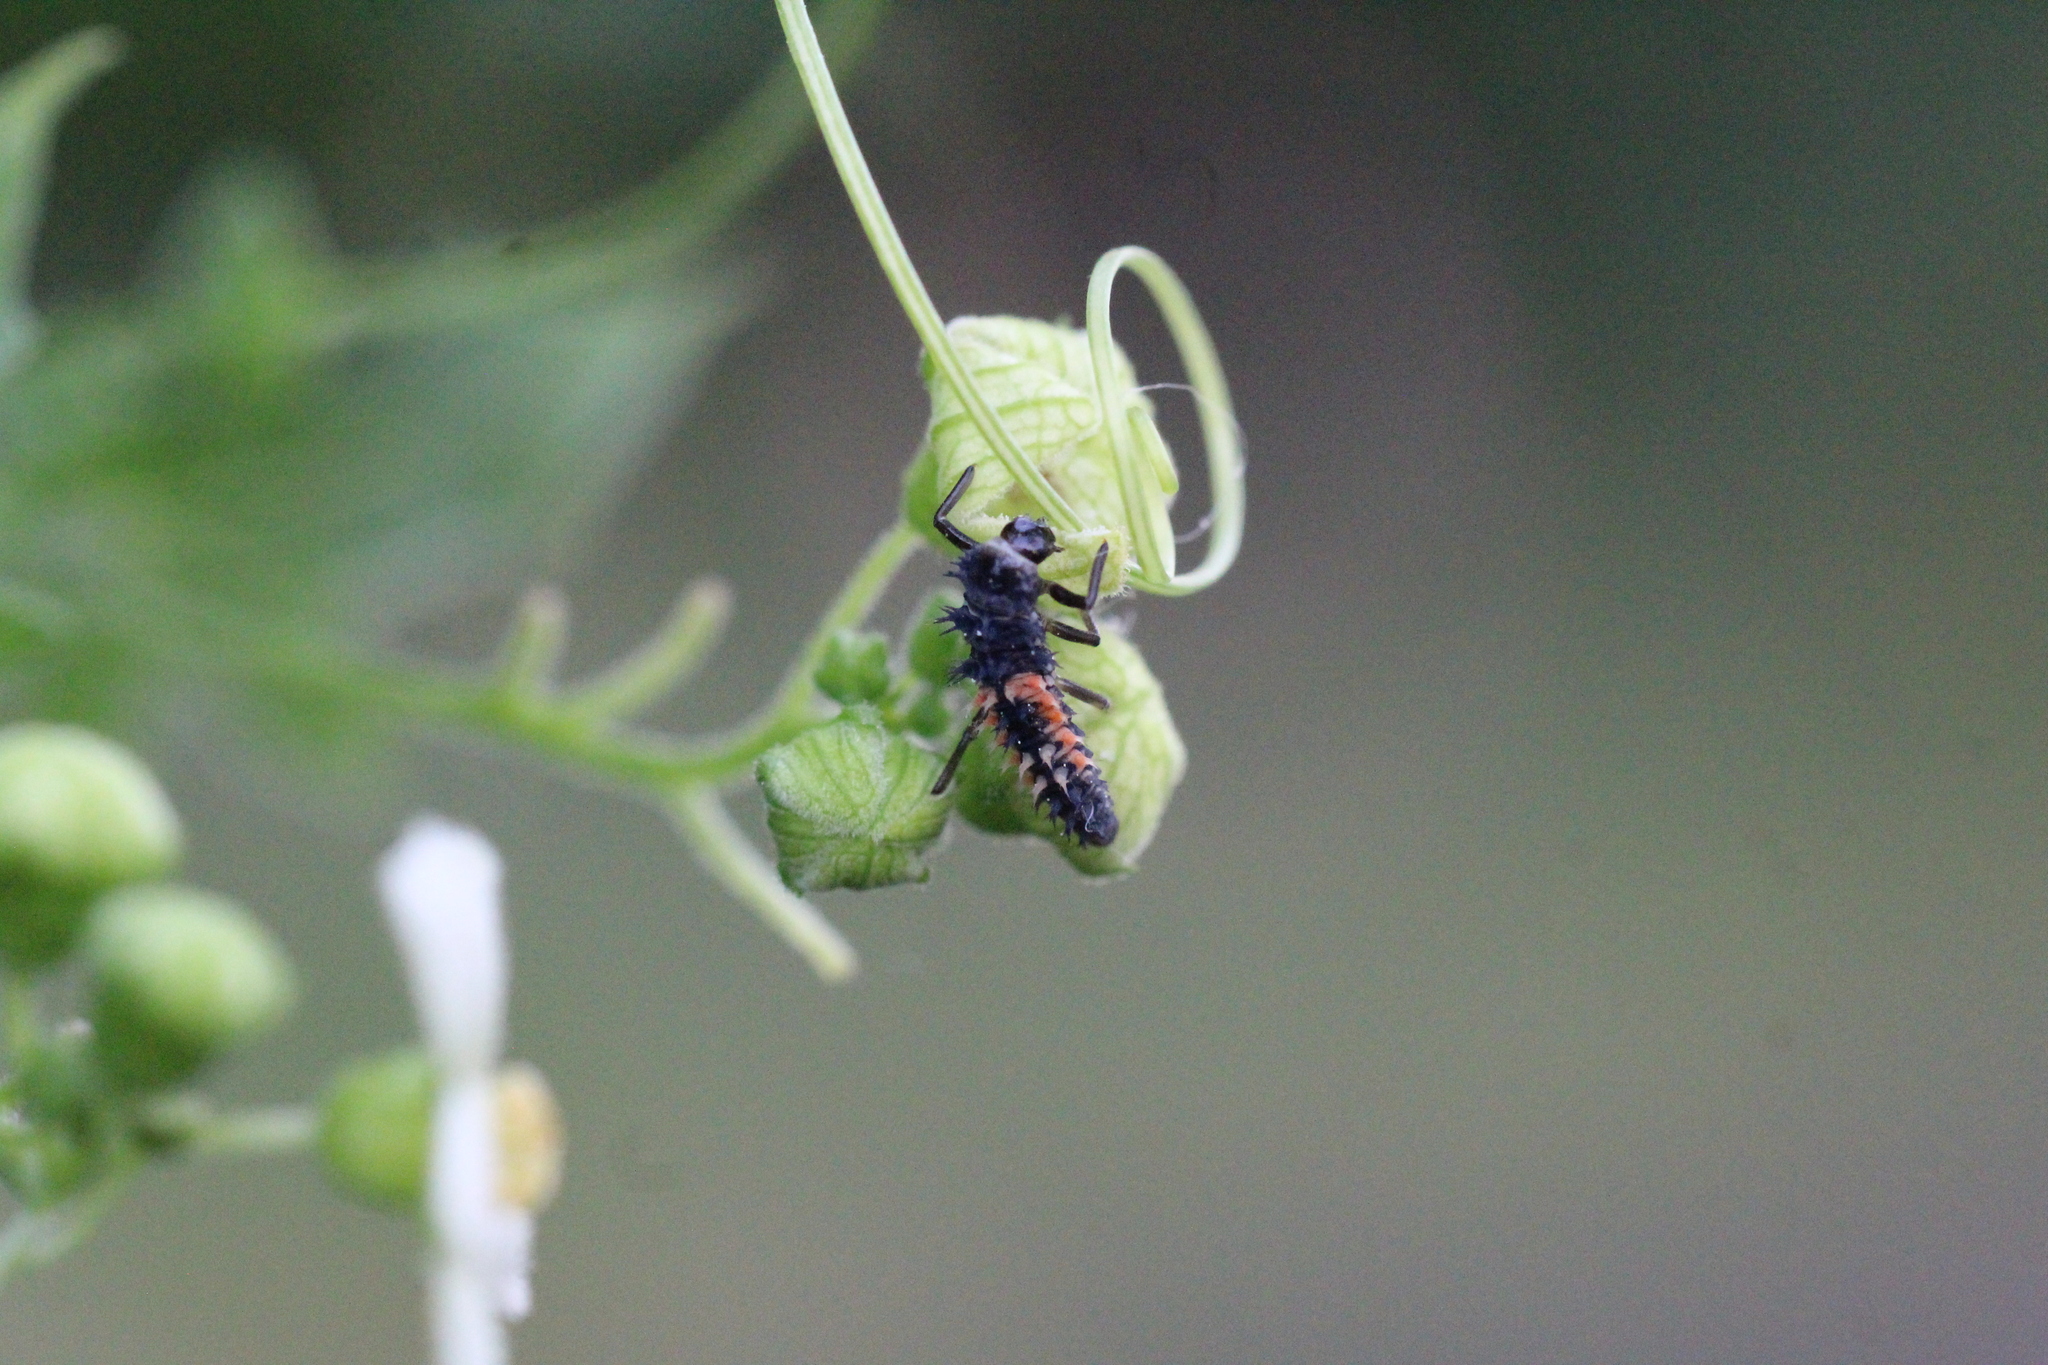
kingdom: Animalia
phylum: Arthropoda
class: Insecta
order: Coleoptera
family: Coccinellidae
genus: Harmonia
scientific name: Harmonia axyridis
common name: Harlequin ladybird
